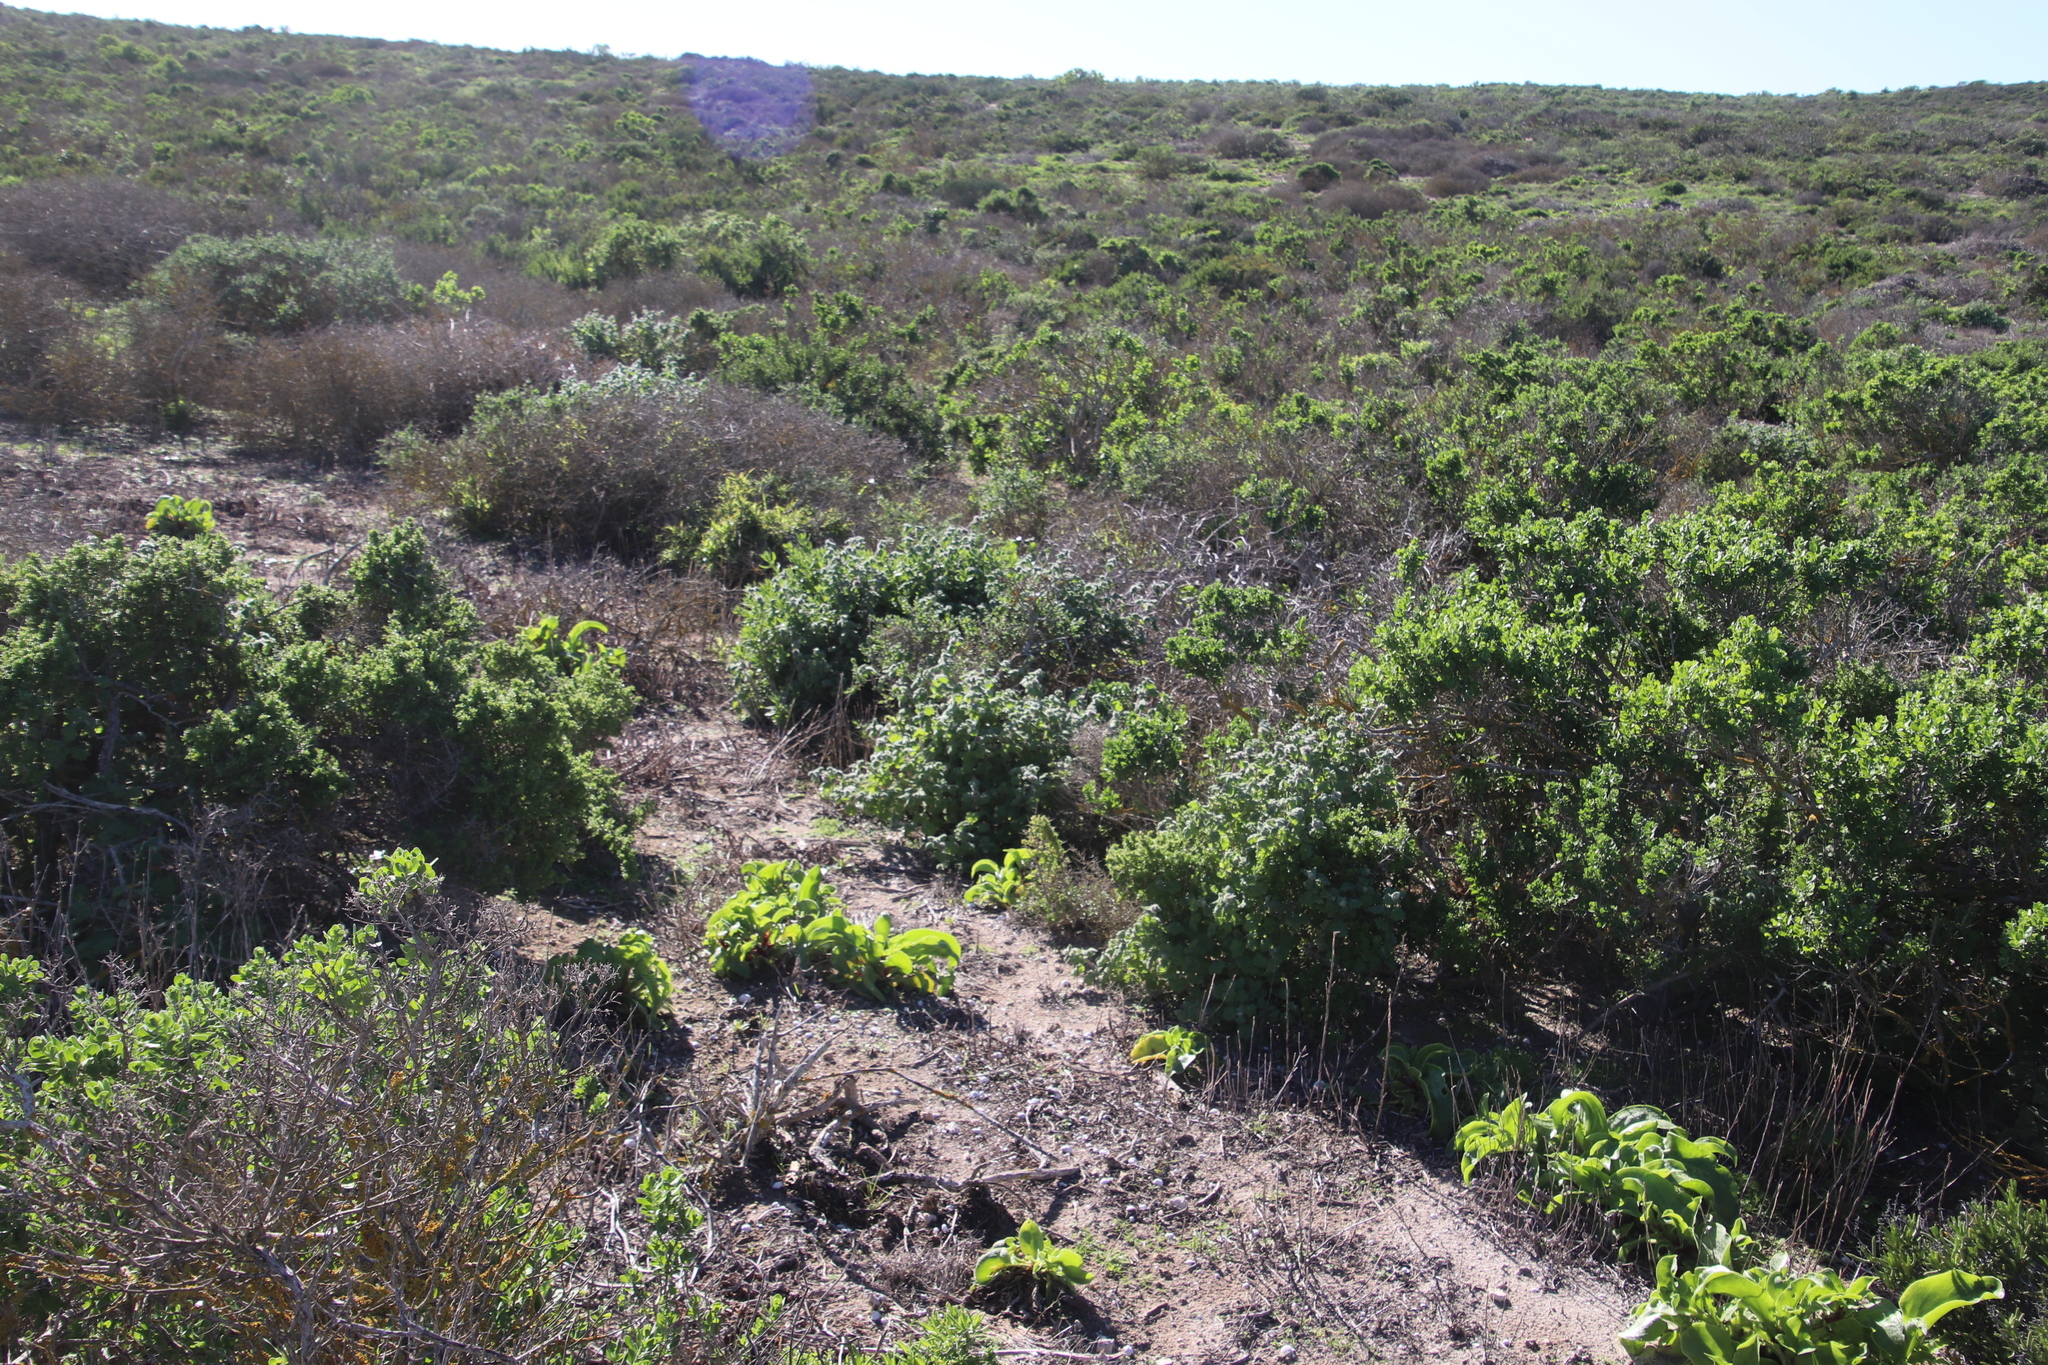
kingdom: Plantae
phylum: Tracheophyta
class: Magnoliopsida
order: Lamiales
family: Lamiaceae
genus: Pseudodictamnus
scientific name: Pseudodictamnus africanus
